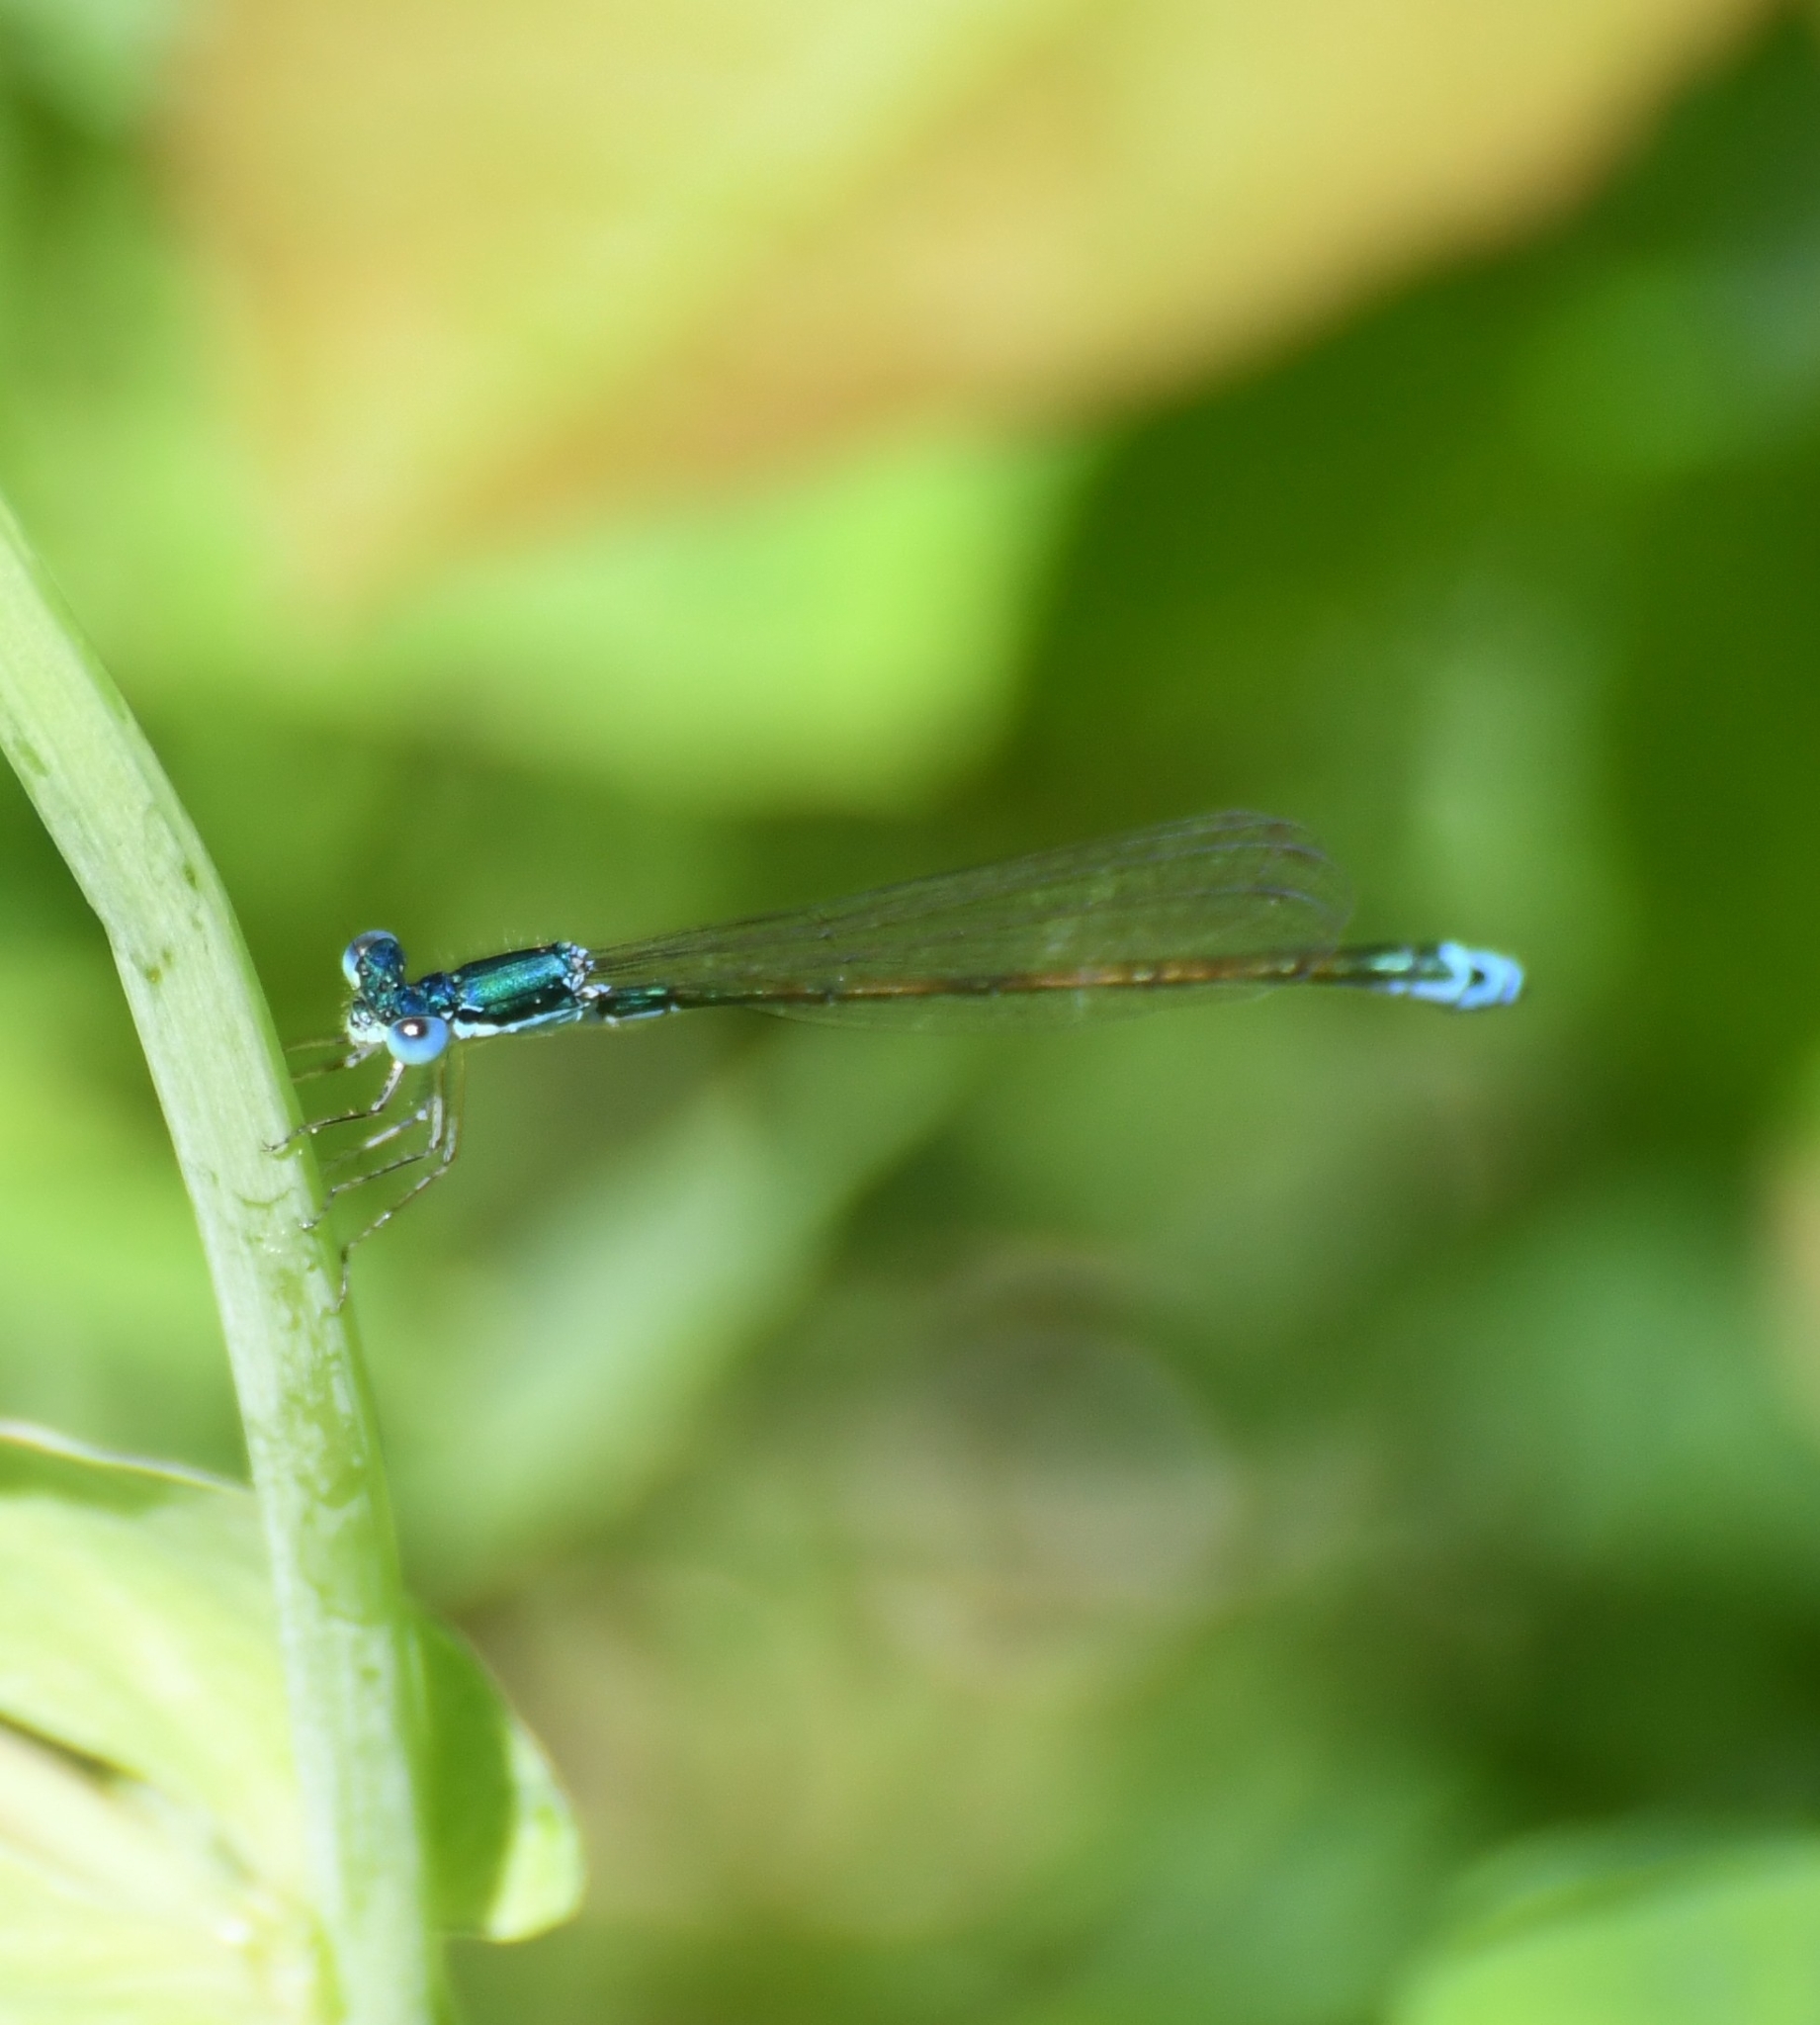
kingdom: Animalia
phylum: Arthropoda
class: Insecta
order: Odonata
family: Coenagrionidae
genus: Nehalennia
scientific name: Nehalennia irene
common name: Sedge sprite
